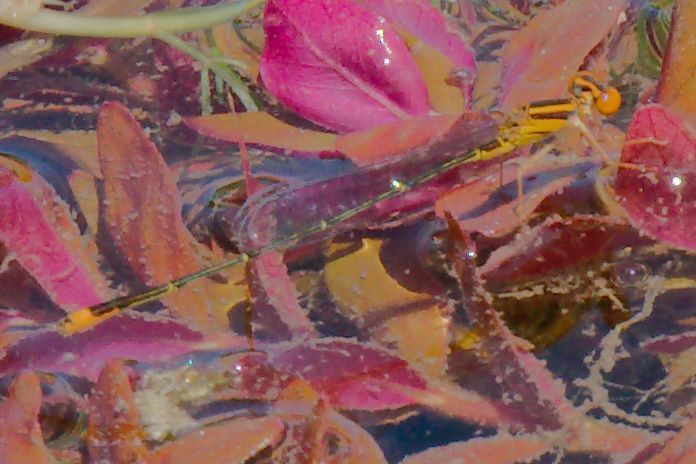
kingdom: Animalia
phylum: Arthropoda
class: Insecta
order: Odonata
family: Coenagrionidae
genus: Enallagma
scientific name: Enallagma pollutum
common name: Florida bluet
